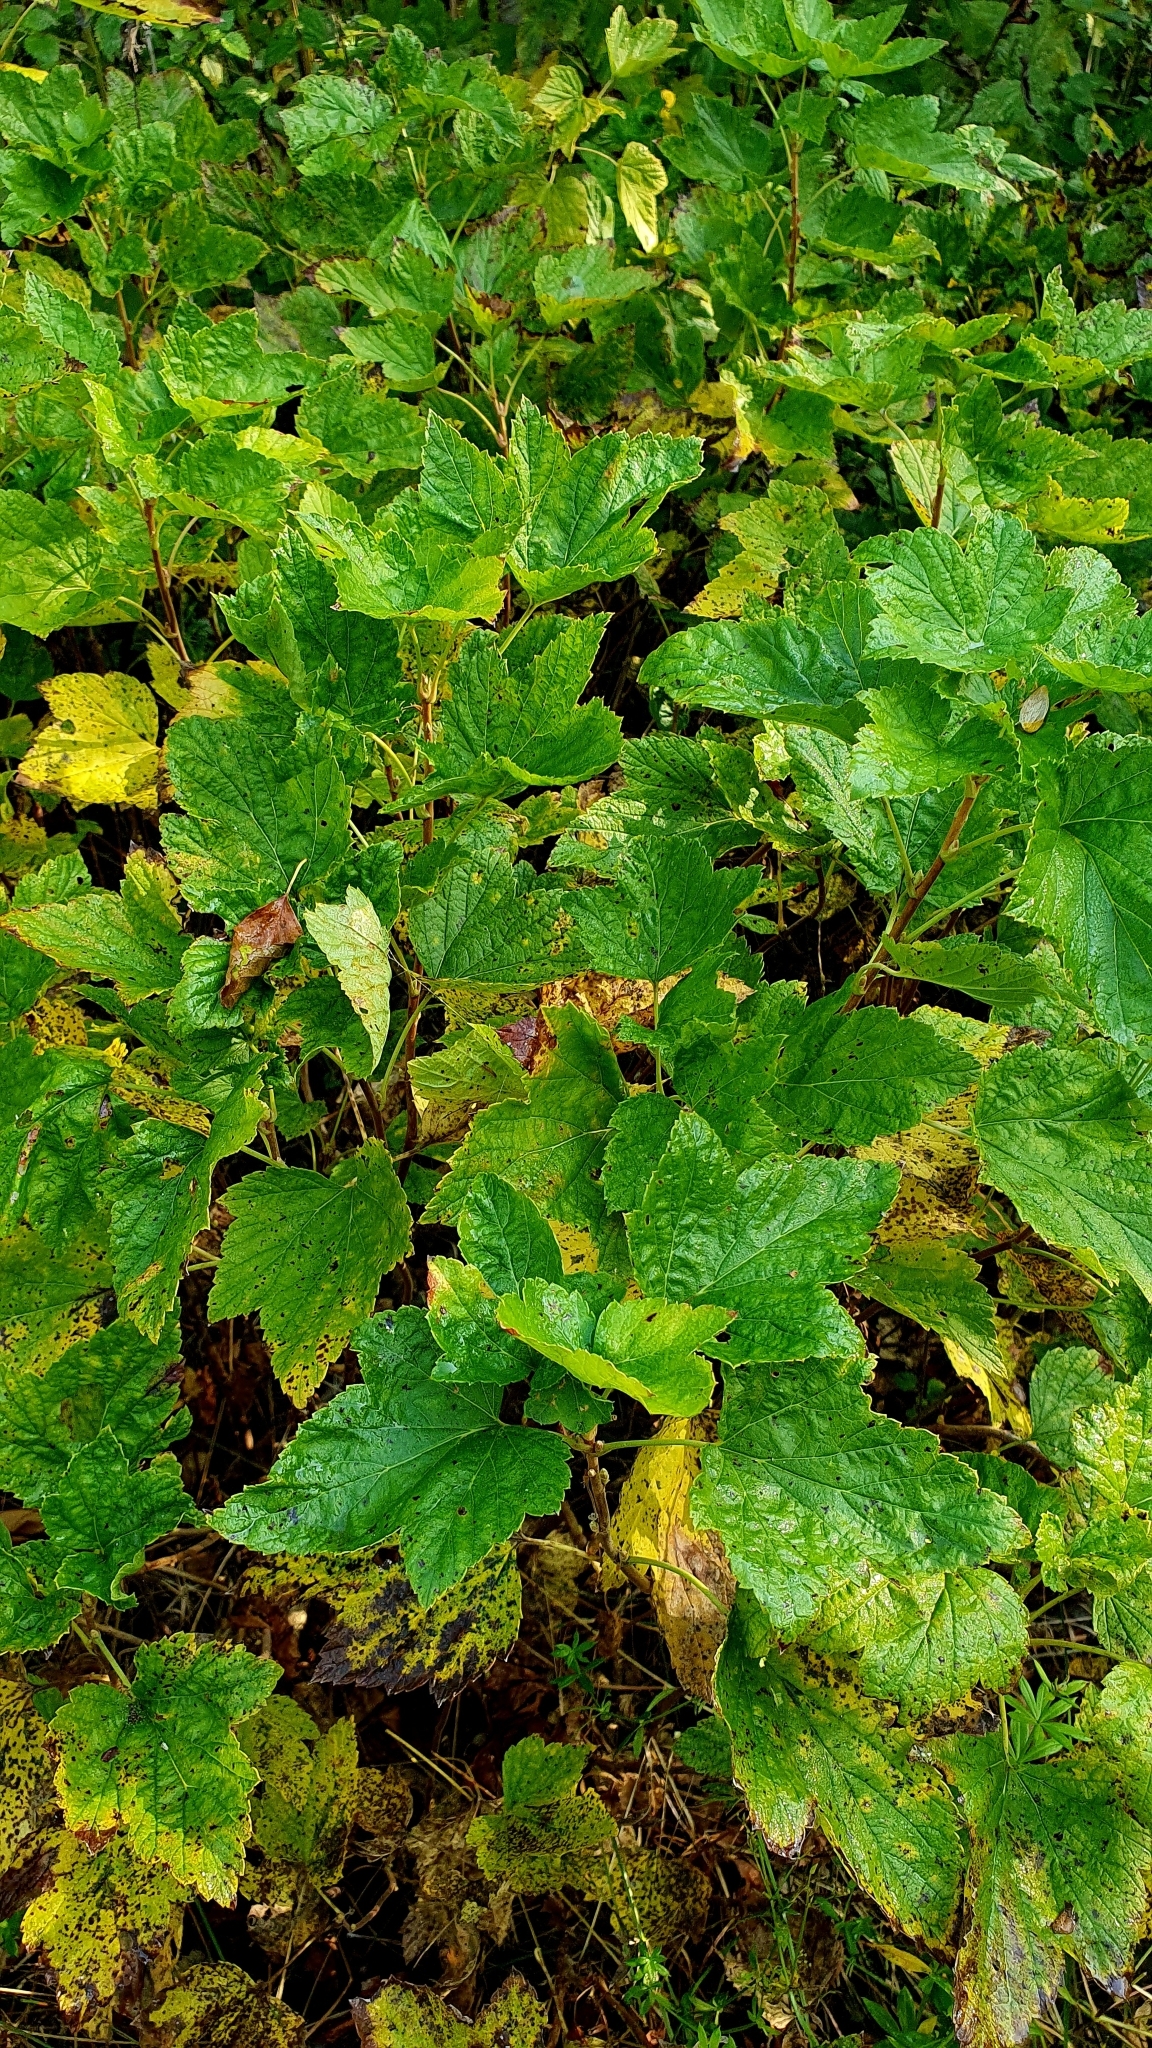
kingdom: Plantae
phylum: Tracheophyta
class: Magnoliopsida
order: Saxifragales
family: Grossulariaceae
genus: Ribes
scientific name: Ribes nigrum
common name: Black currant
